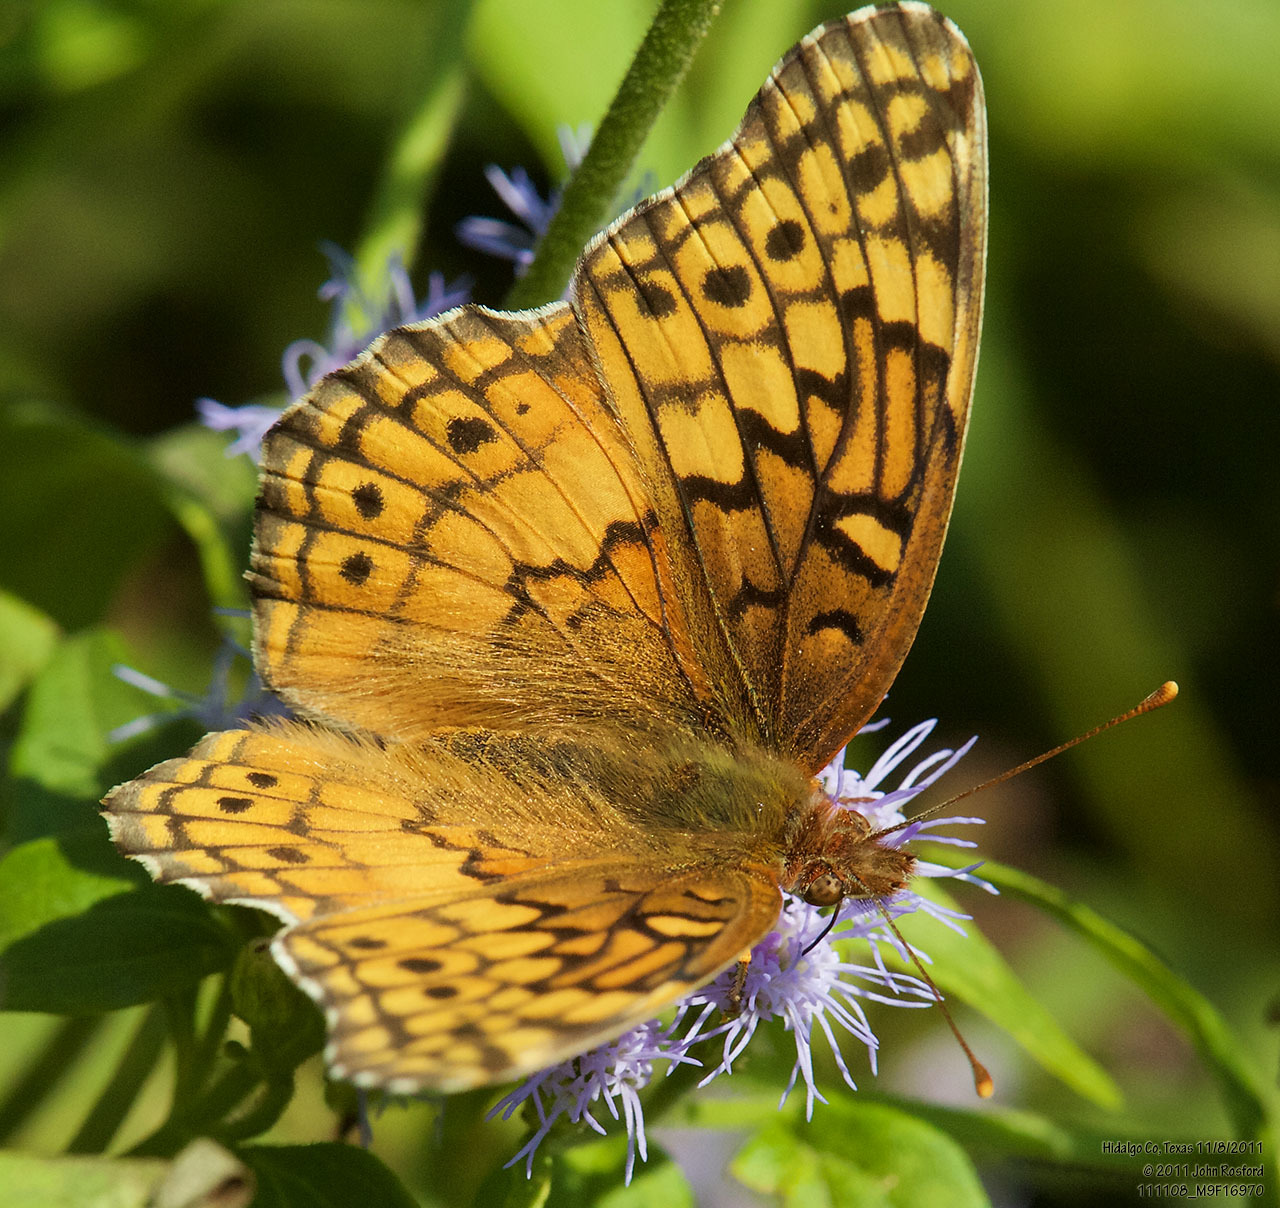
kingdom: Animalia
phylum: Arthropoda
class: Insecta
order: Lepidoptera
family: Nymphalidae
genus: Euptoieta
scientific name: Euptoieta claudia
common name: Variegated fritillary
